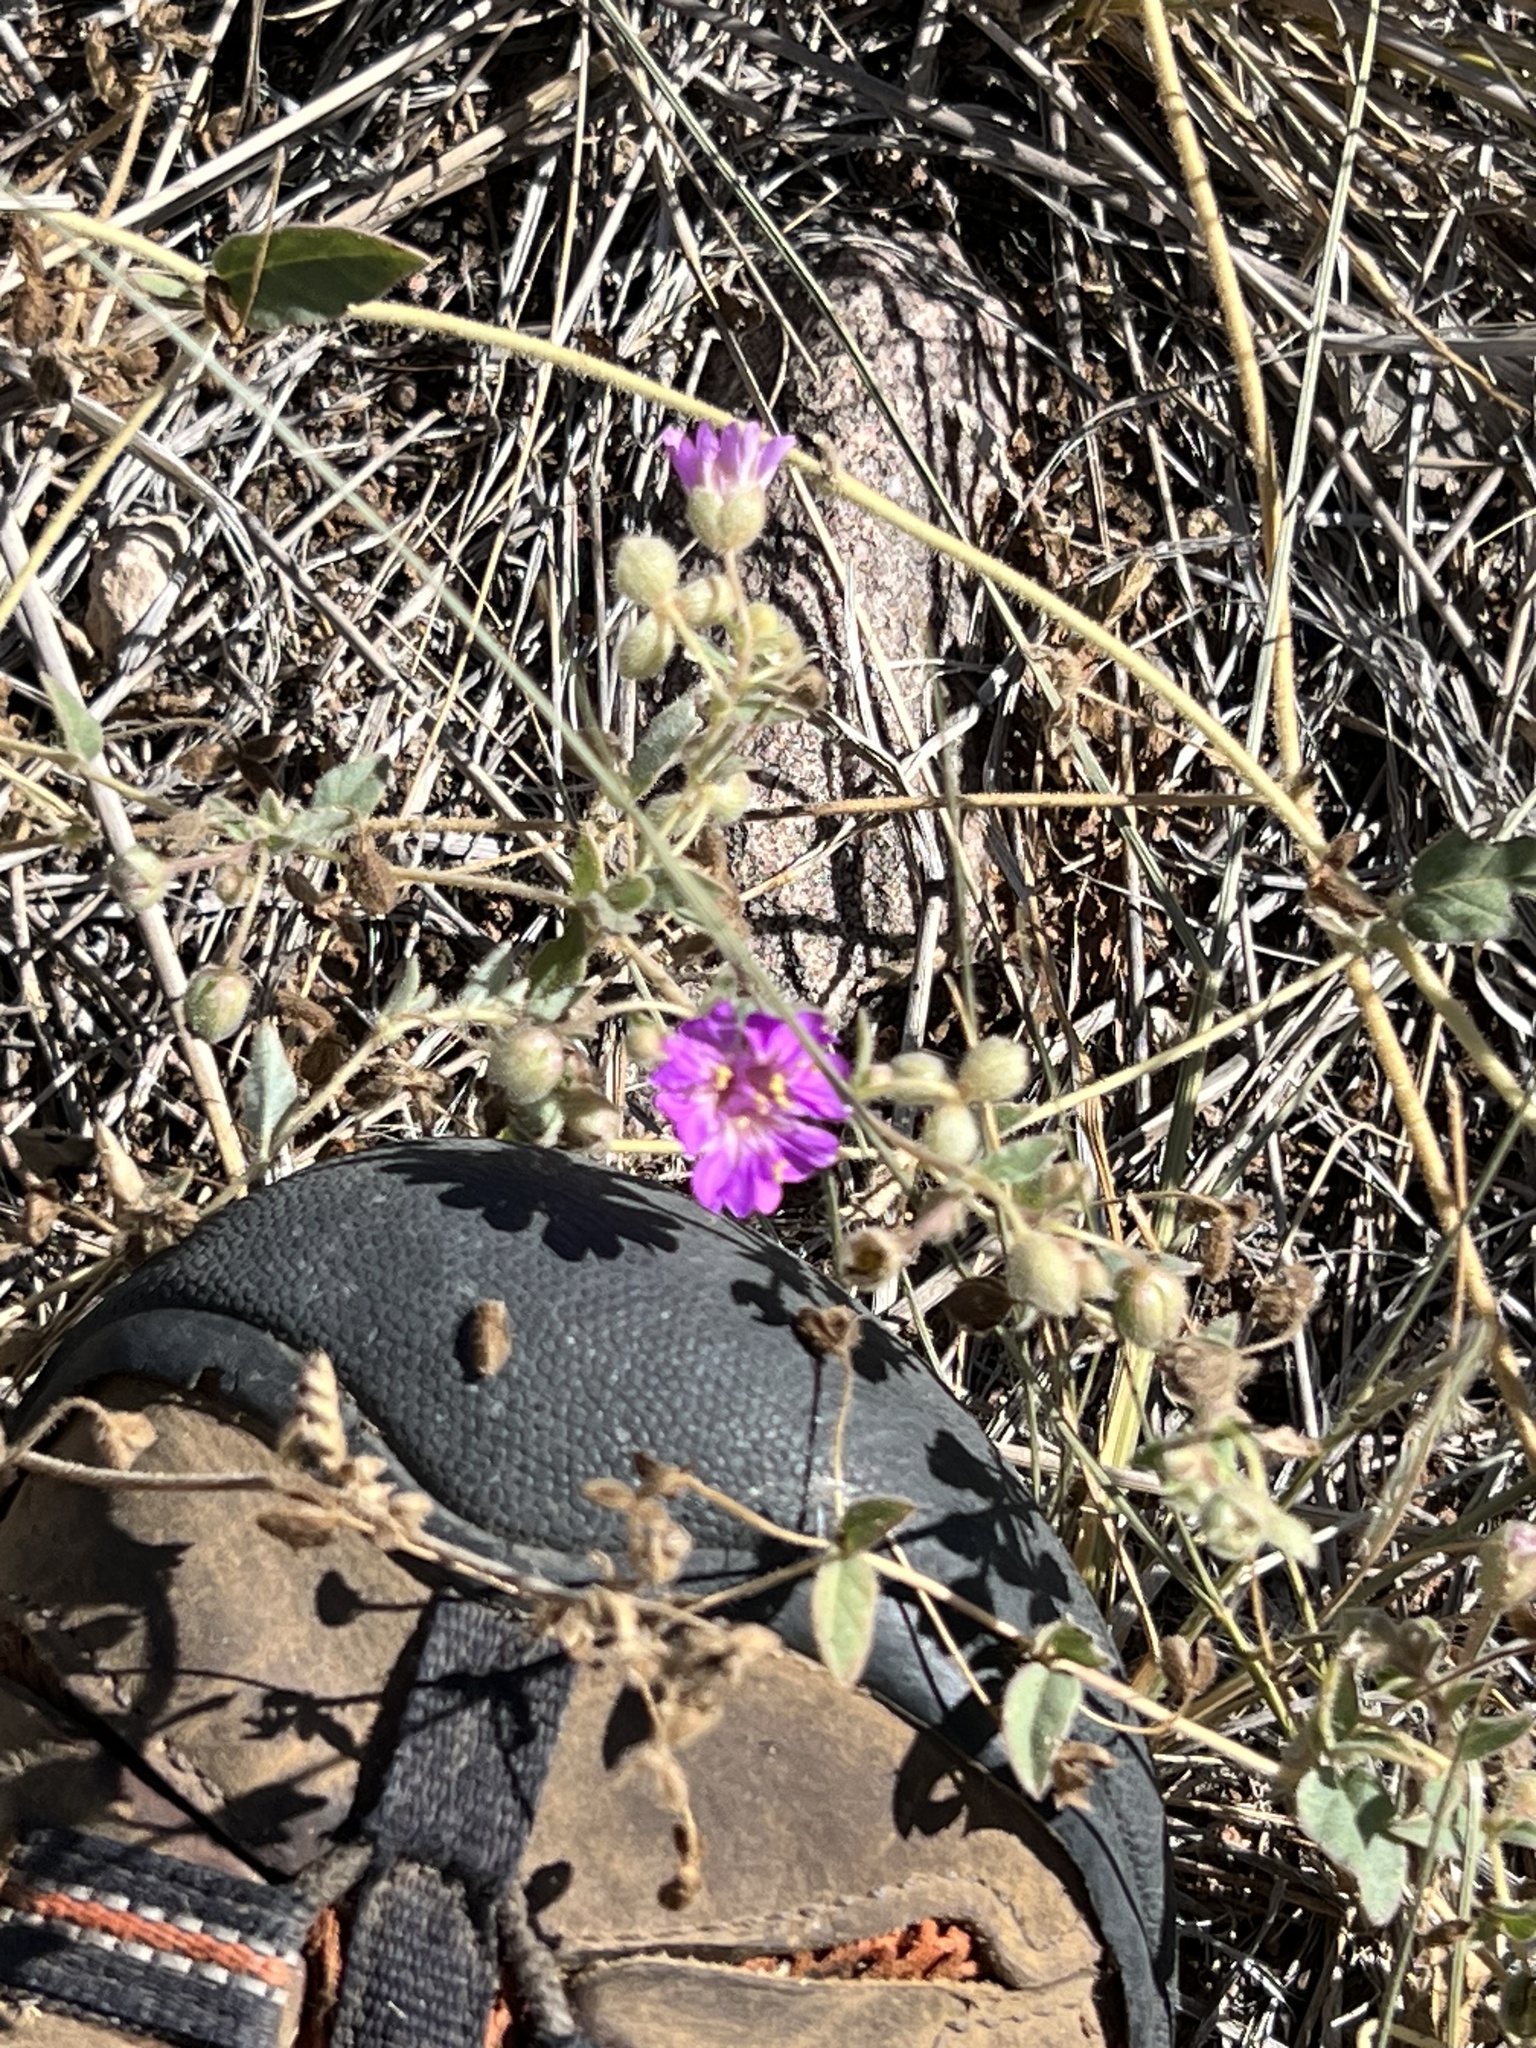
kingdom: Plantae
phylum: Tracheophyta
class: Magnoliopsida
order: Caryophyllales
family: Nyctaginaceae
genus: Allionia
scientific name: Allionia incarnata
